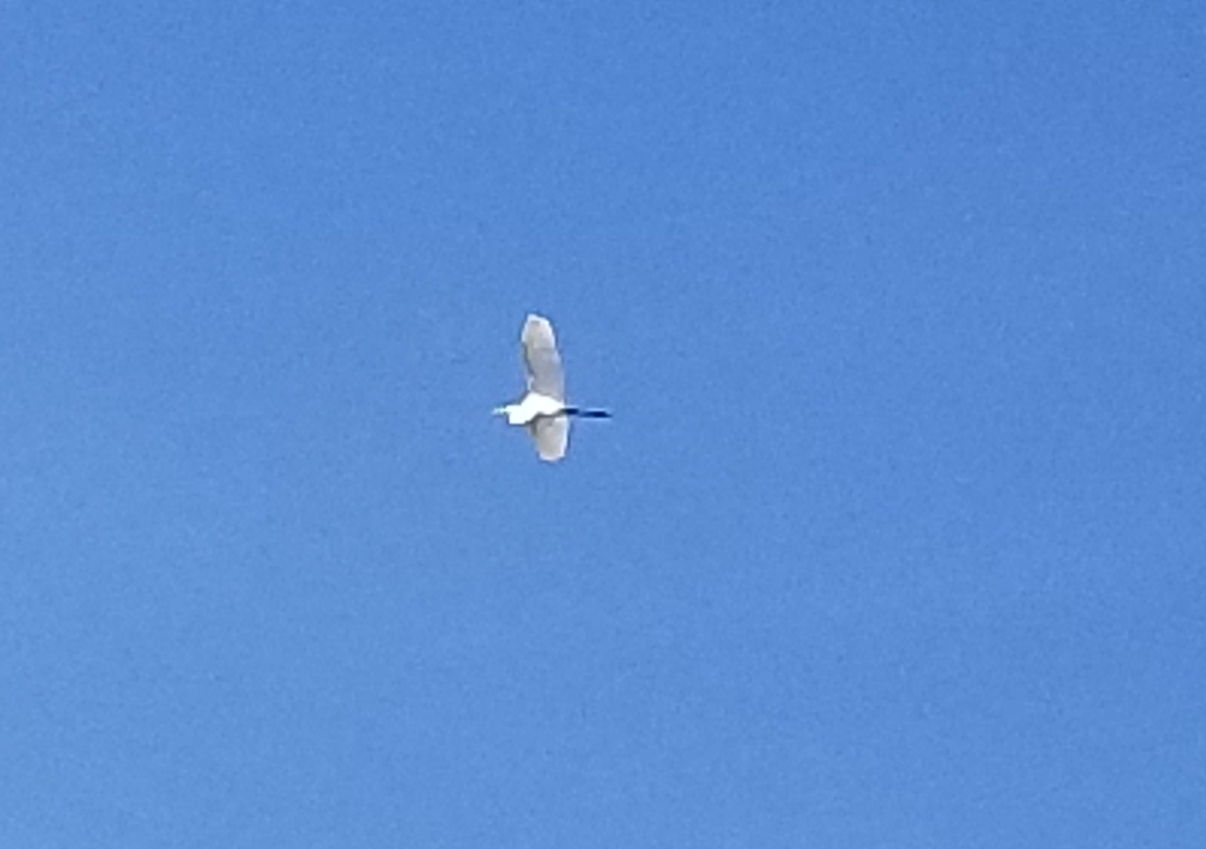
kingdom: Animalia
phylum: Chordata
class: Aves
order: Pelecaniformes
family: Ardeidae
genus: Ardea
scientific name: Ardea alba
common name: Great egret
